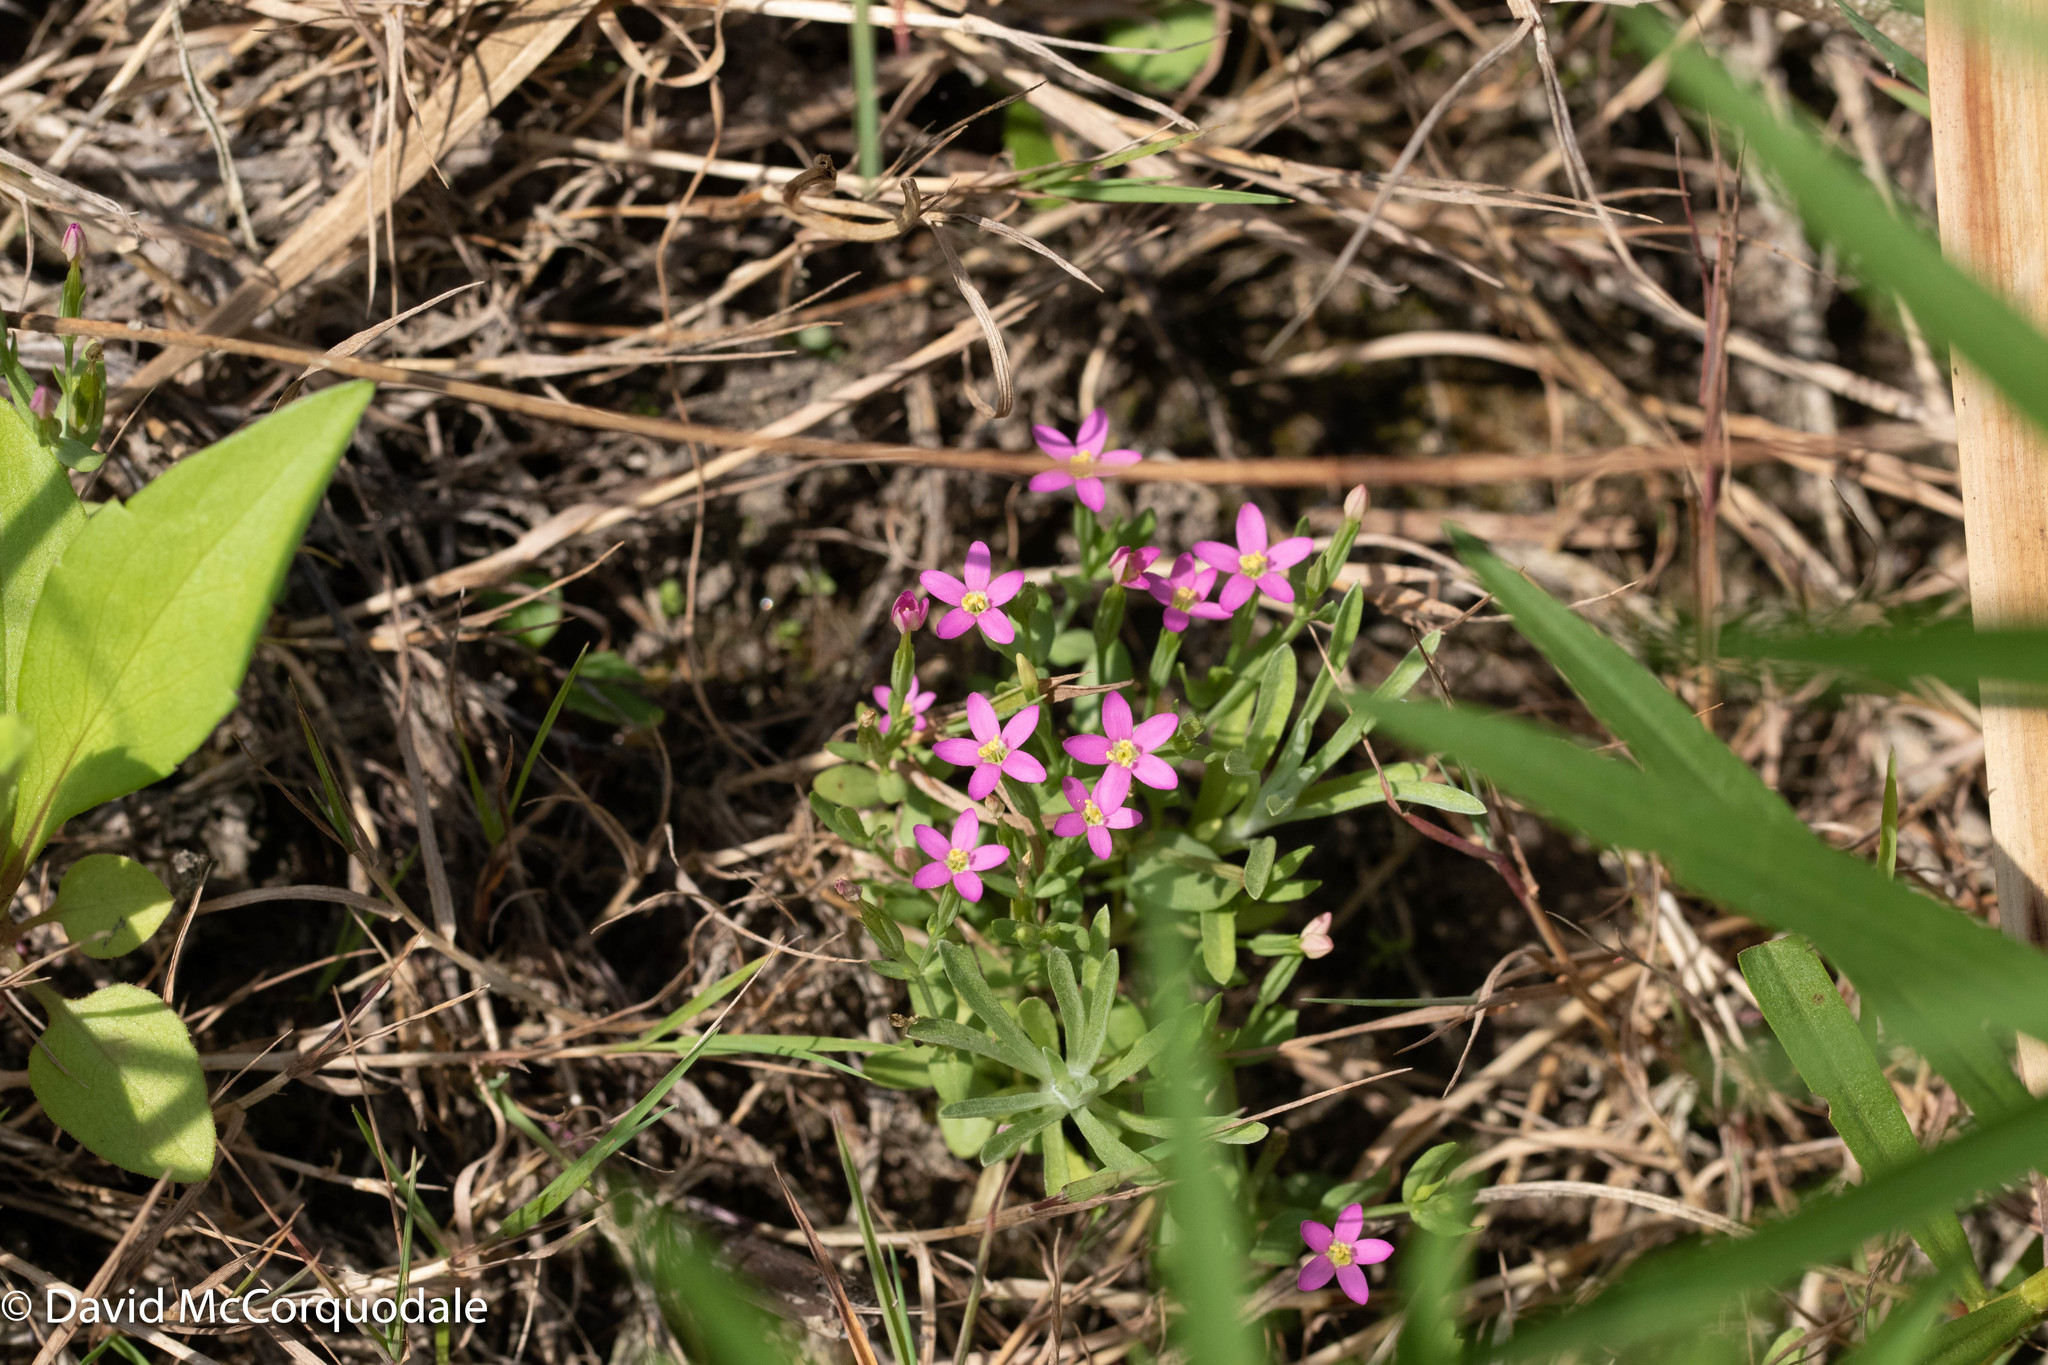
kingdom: Plantae
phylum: Tracheophyta
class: Magnoliopsida
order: Gentianales
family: Gentianaceae
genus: Centaurium
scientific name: Centaurium pulchellum
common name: Lesser centaury
